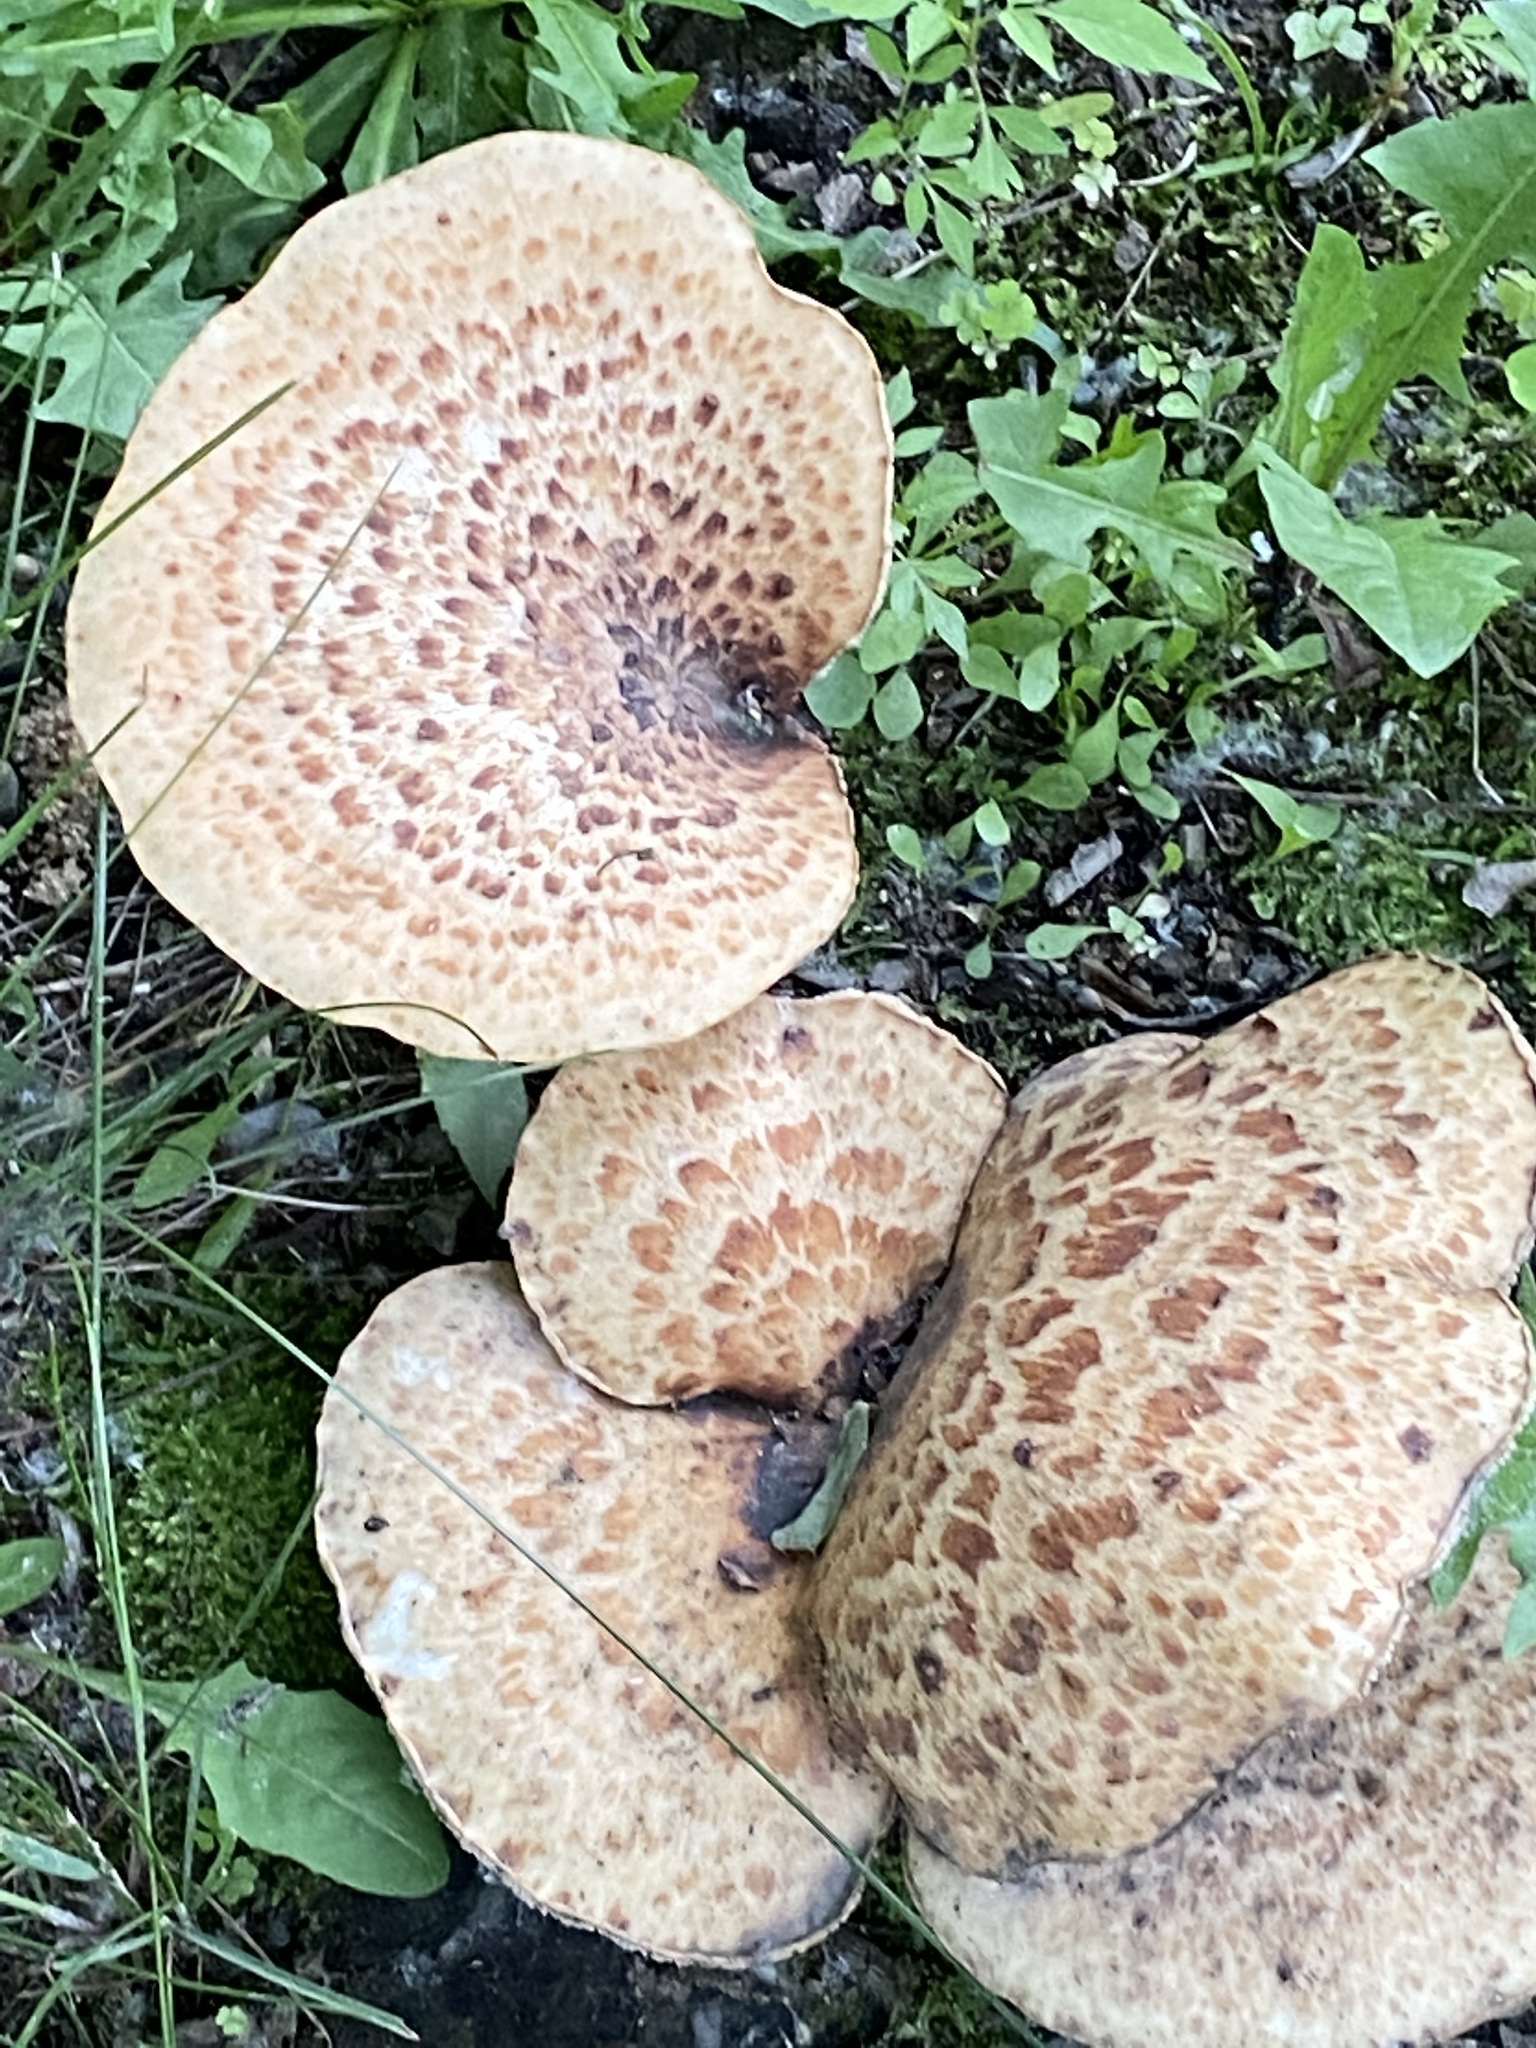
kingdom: Fungi
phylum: Basidiomycota
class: Agaricomycetes
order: Polyporales
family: Polyporaceae
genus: Cerioporus
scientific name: Cerioporus squamosus
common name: Dryad's saddle
